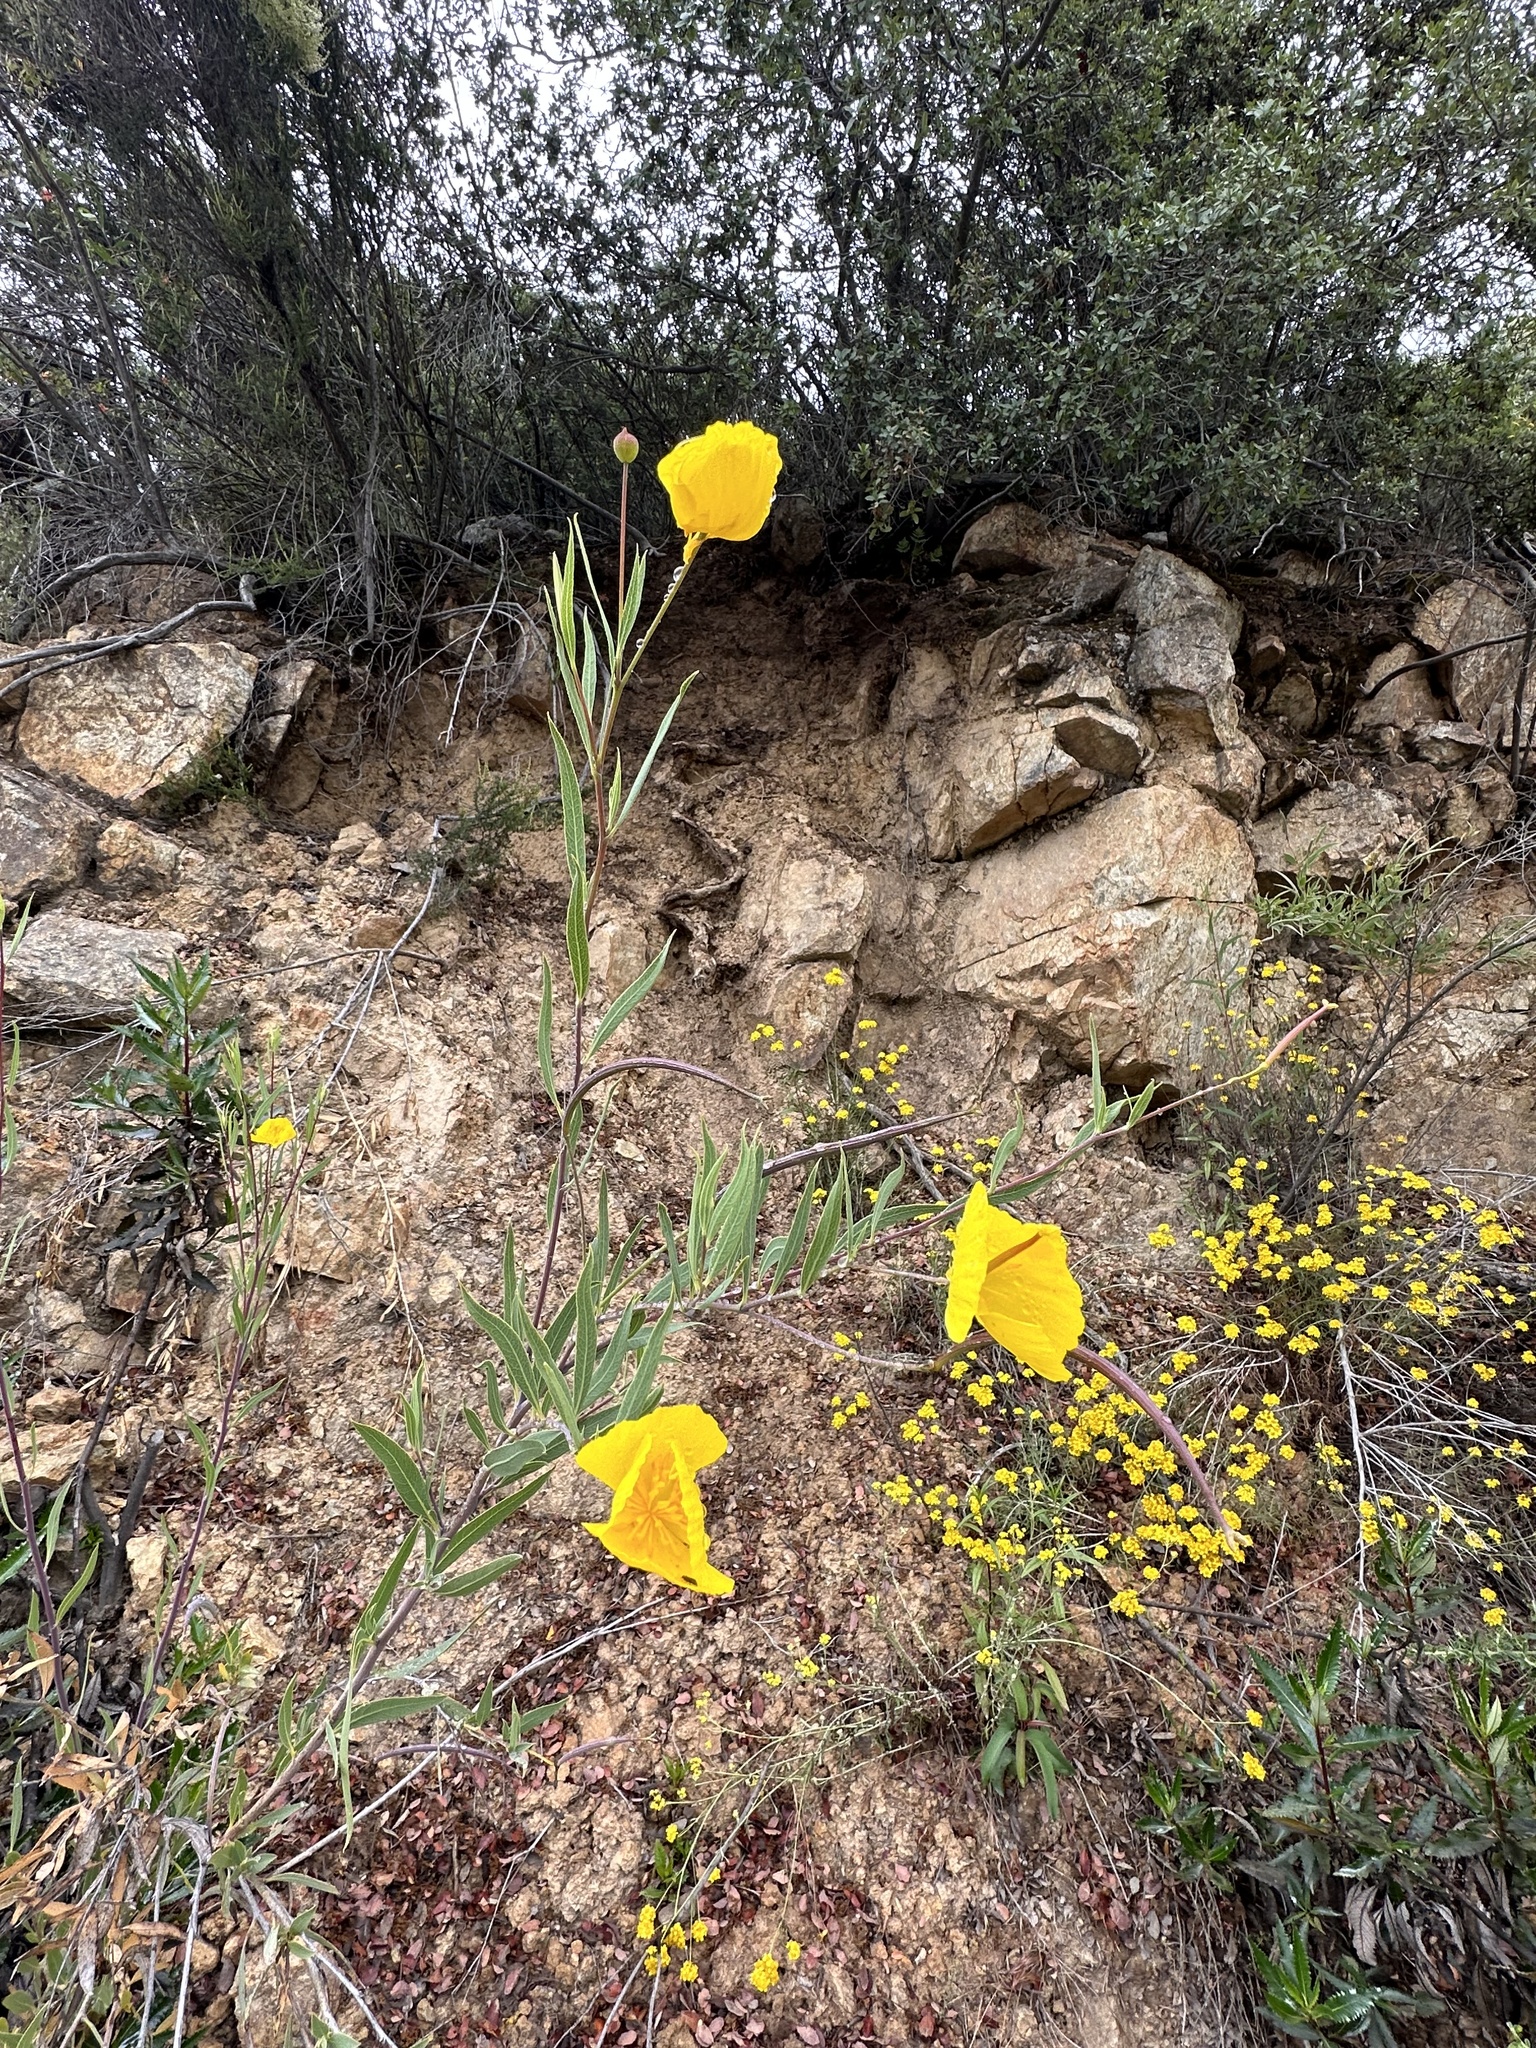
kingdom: Plantae
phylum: Tracheophyta
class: Magnoliopsida
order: Ranunculales
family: Papaveraceae
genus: Dendromecon
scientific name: Dendromecon rigida
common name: Tree poppy
